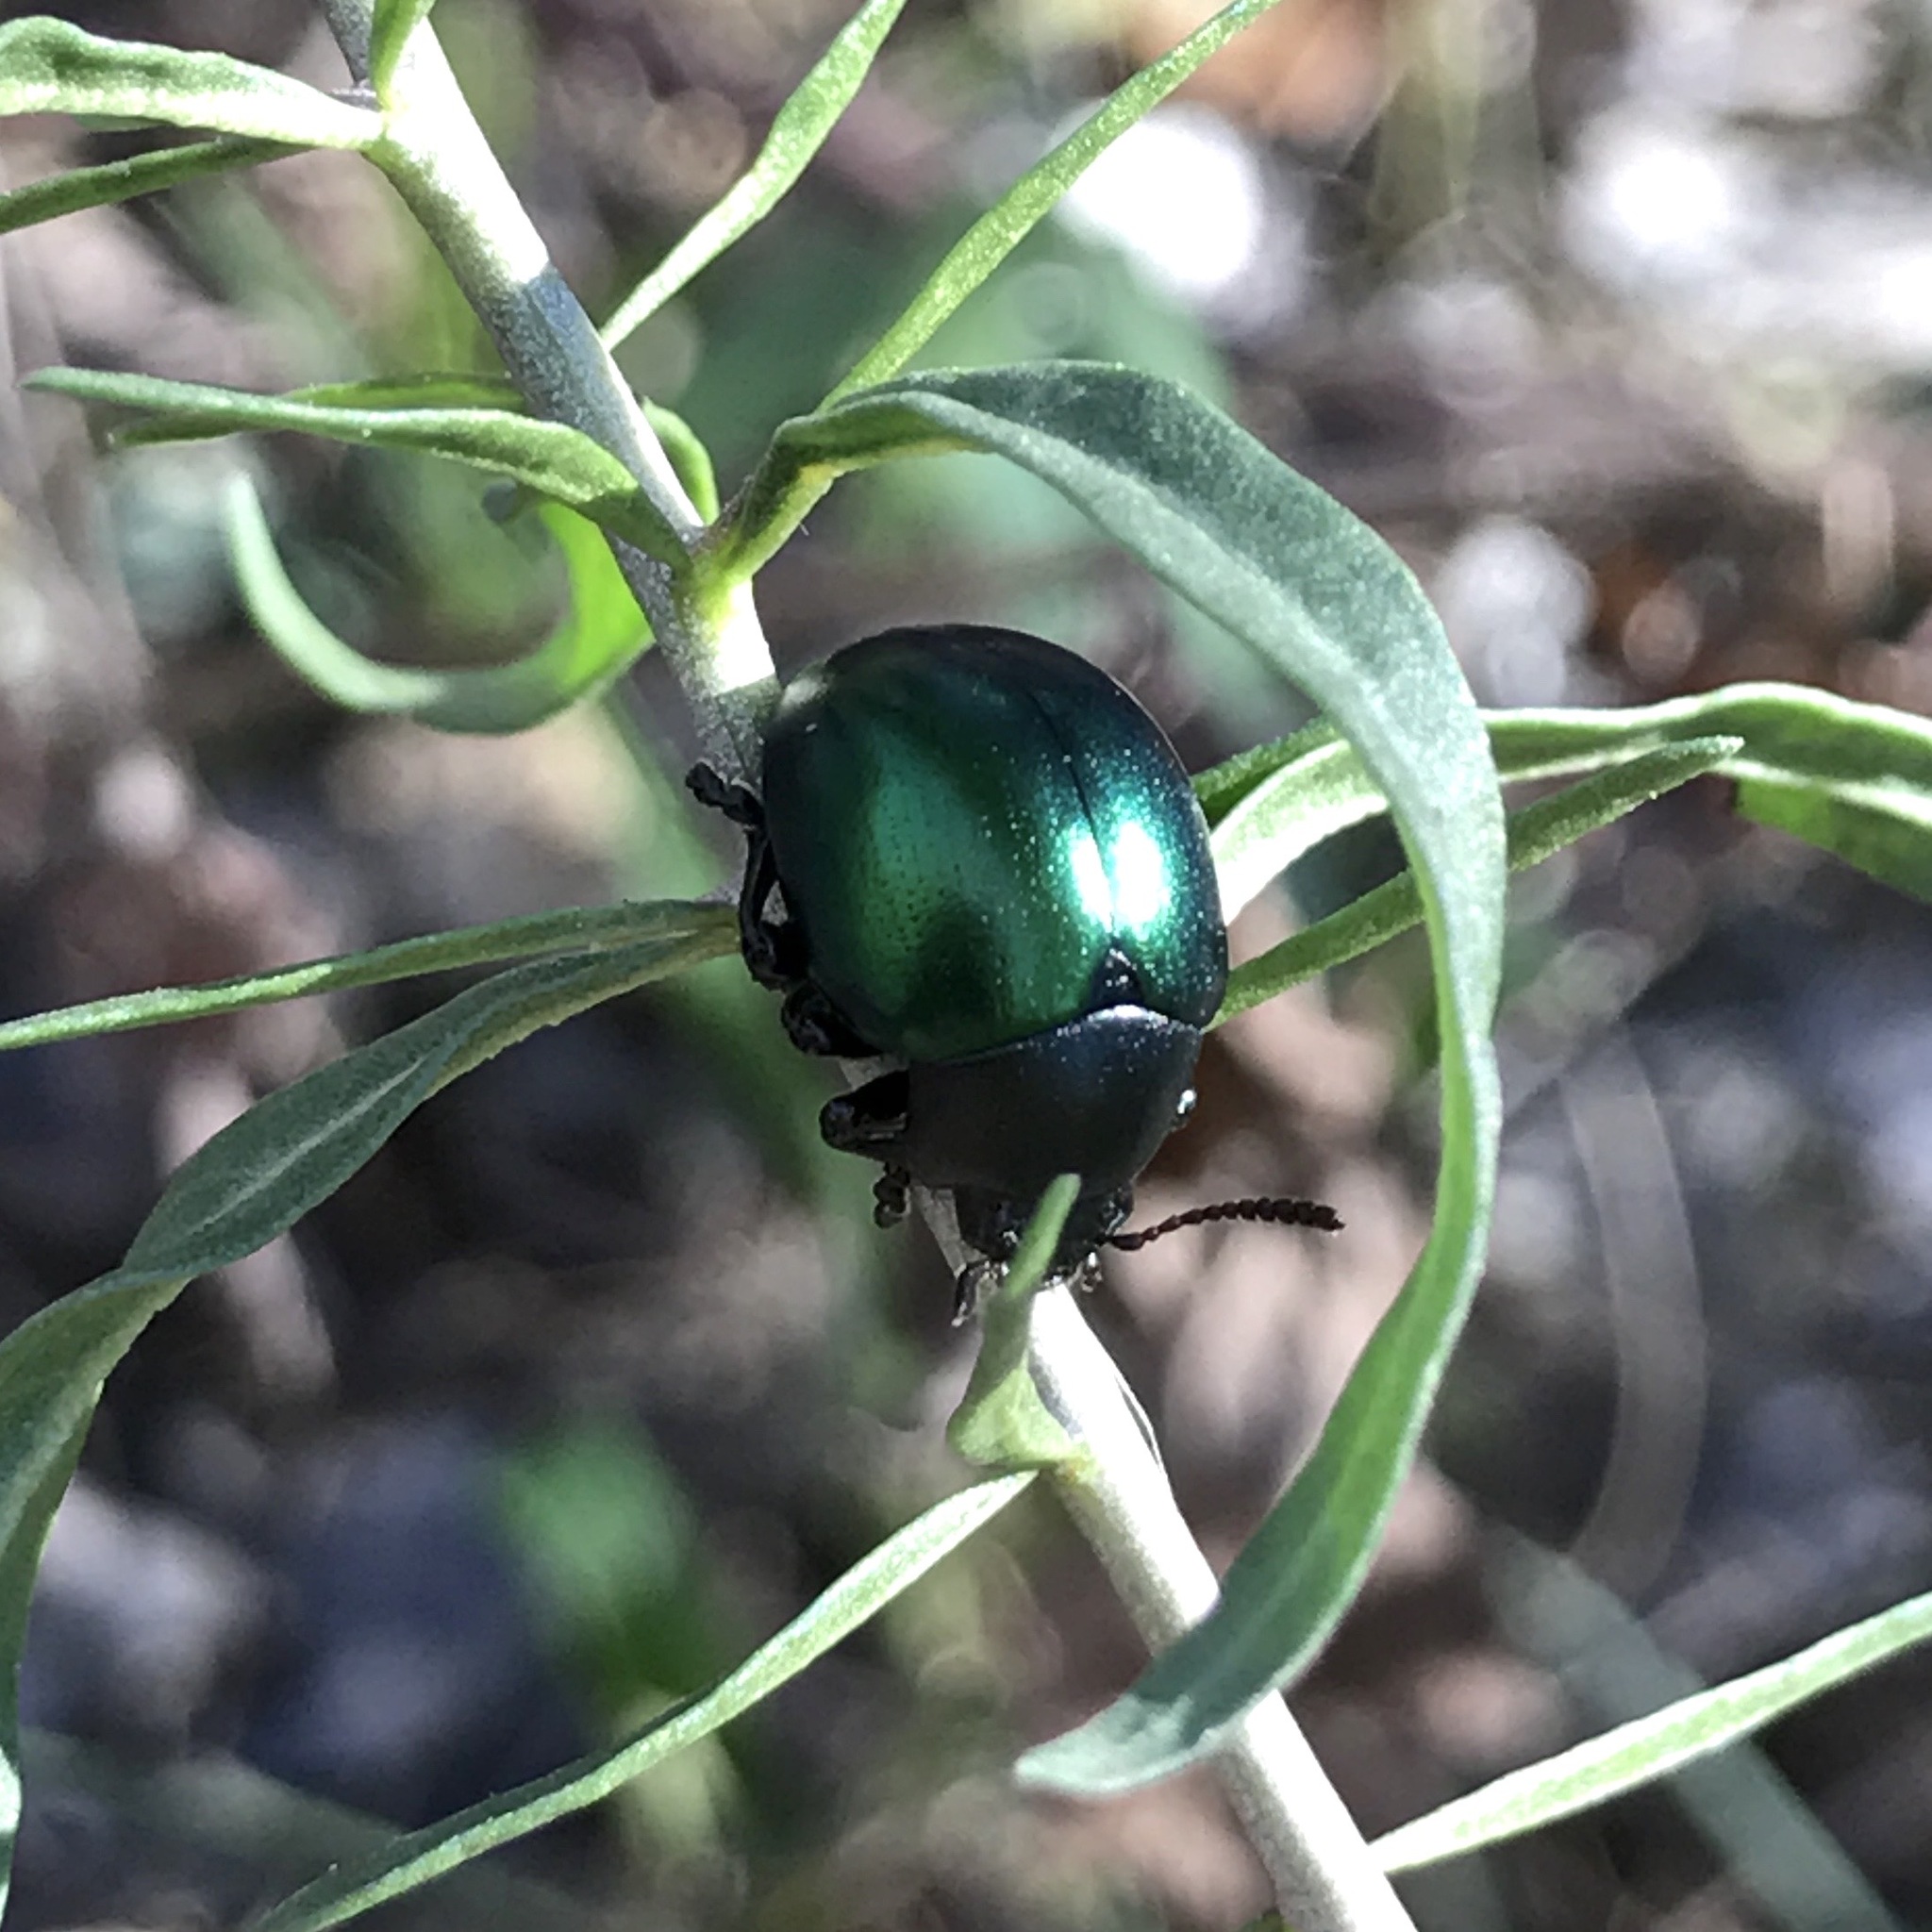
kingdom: Animalia
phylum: Arthropoda
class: Insecta
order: Coleoptera
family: Chrysomelidae
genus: Leptinotarsa
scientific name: Leptinotarsa haldemani
